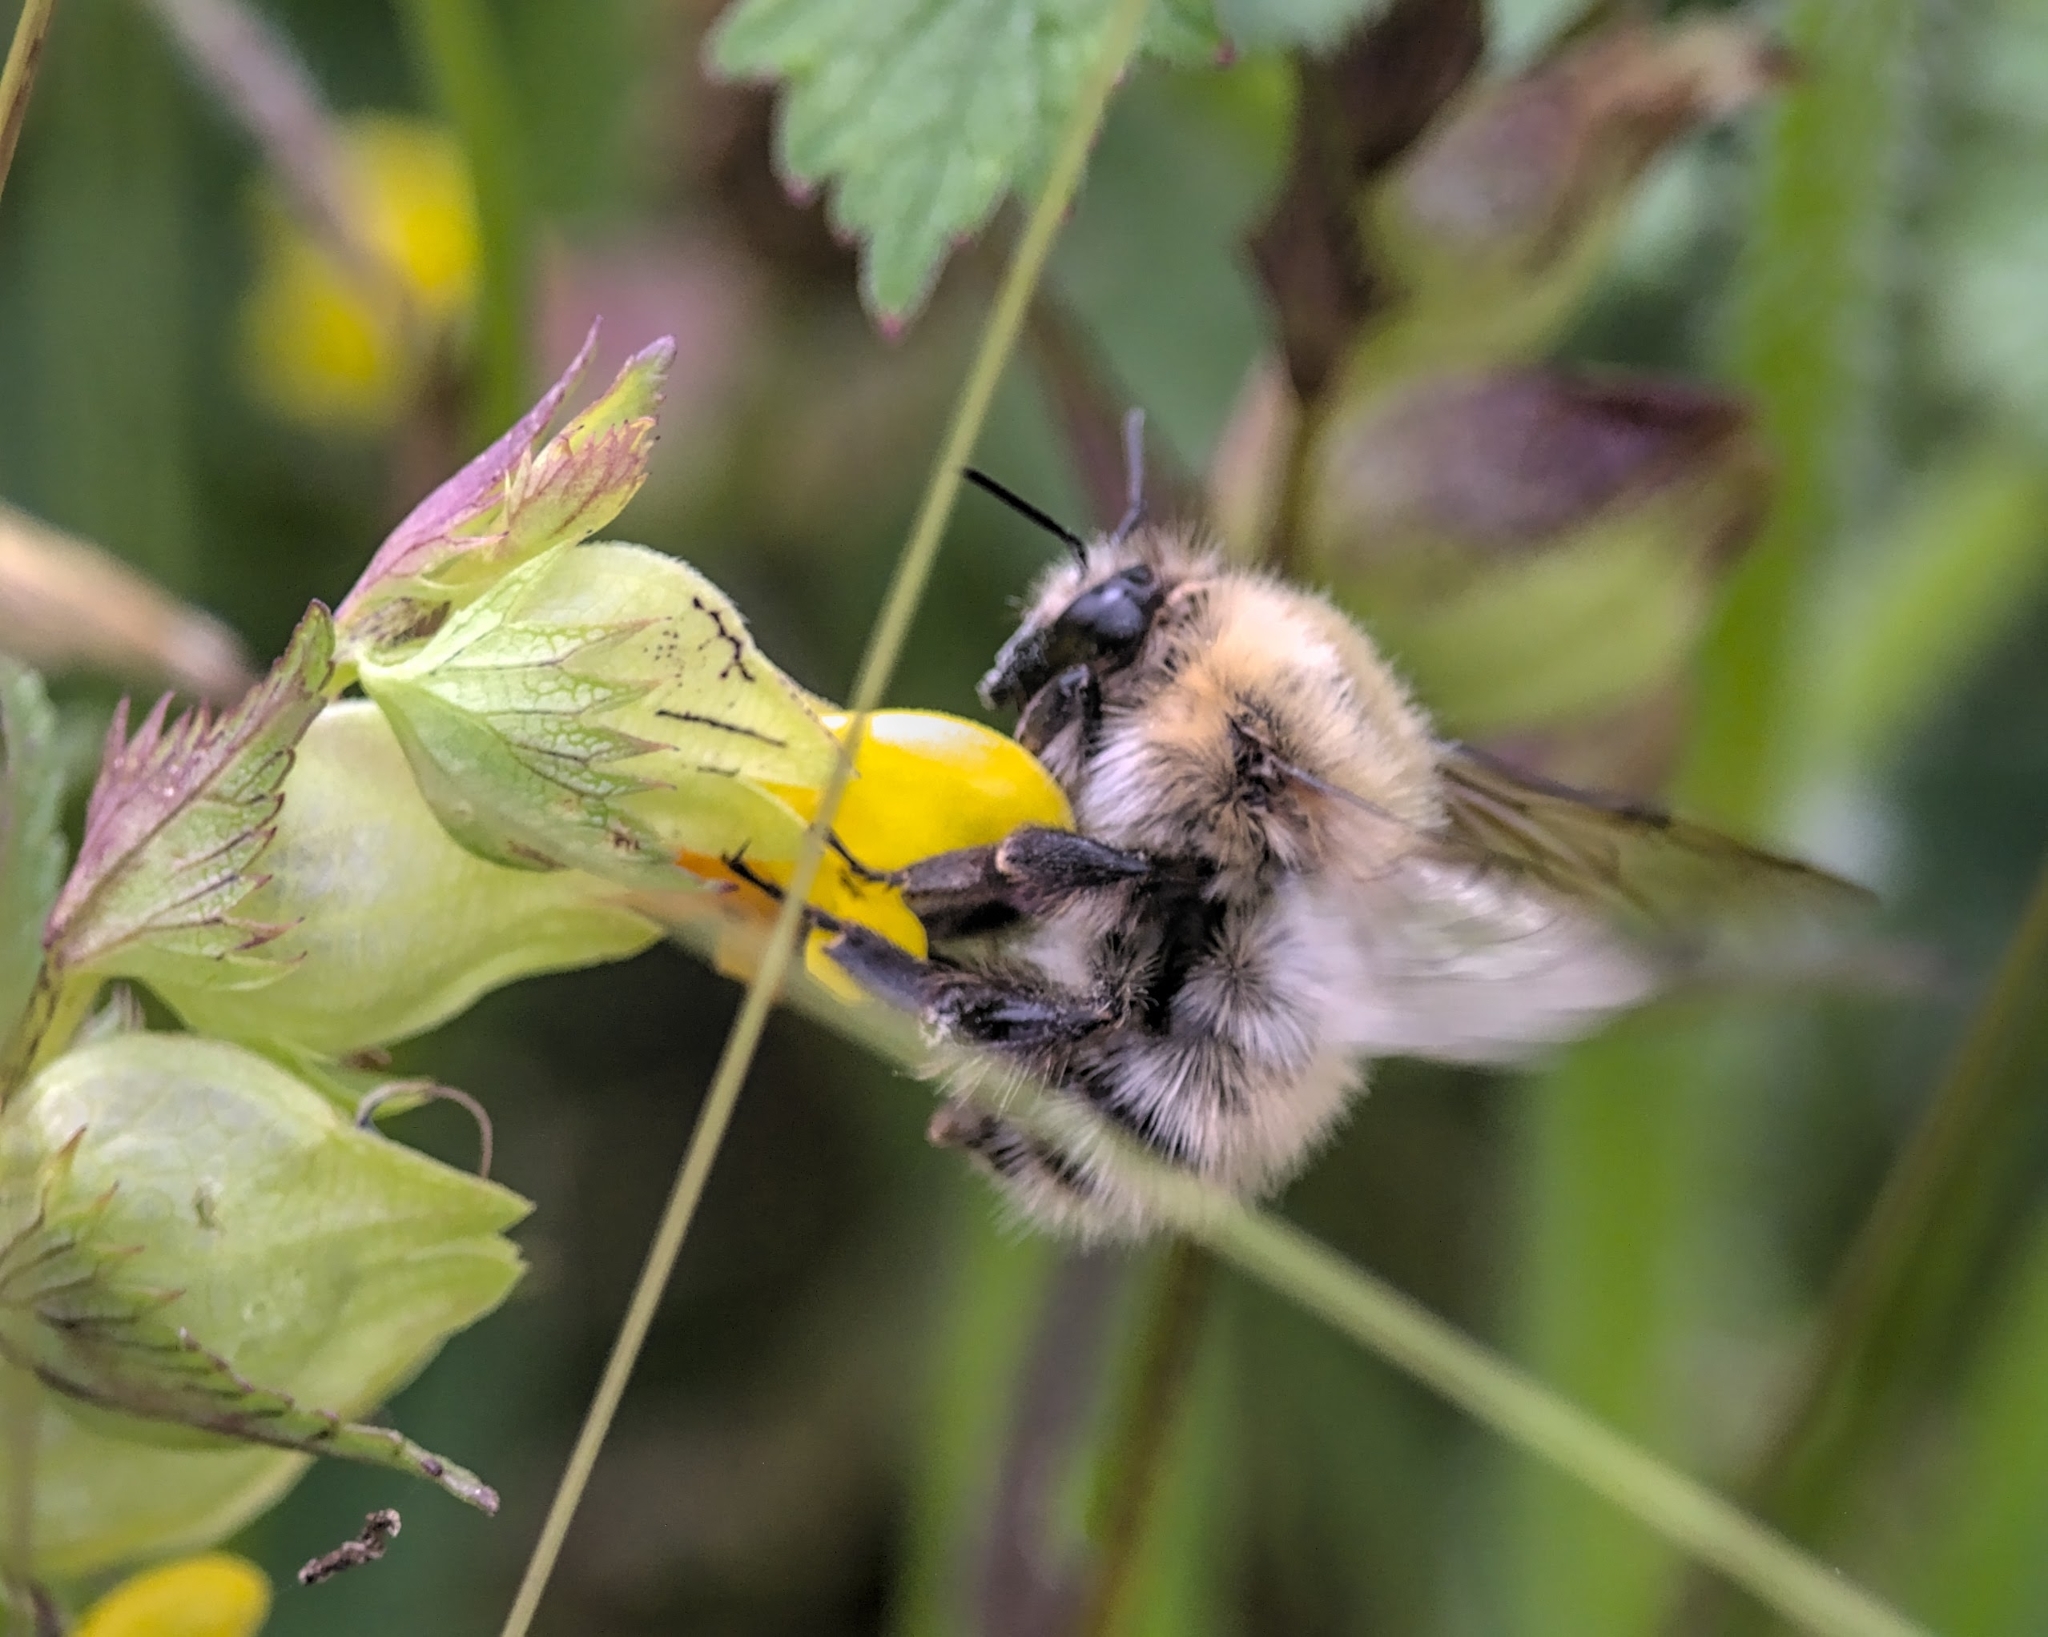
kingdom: Animalia
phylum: Arthropoda
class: Insecta
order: Hymenoptera
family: Apidae
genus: Bombus
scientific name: Bombus pascuorum
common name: Common carder bee
